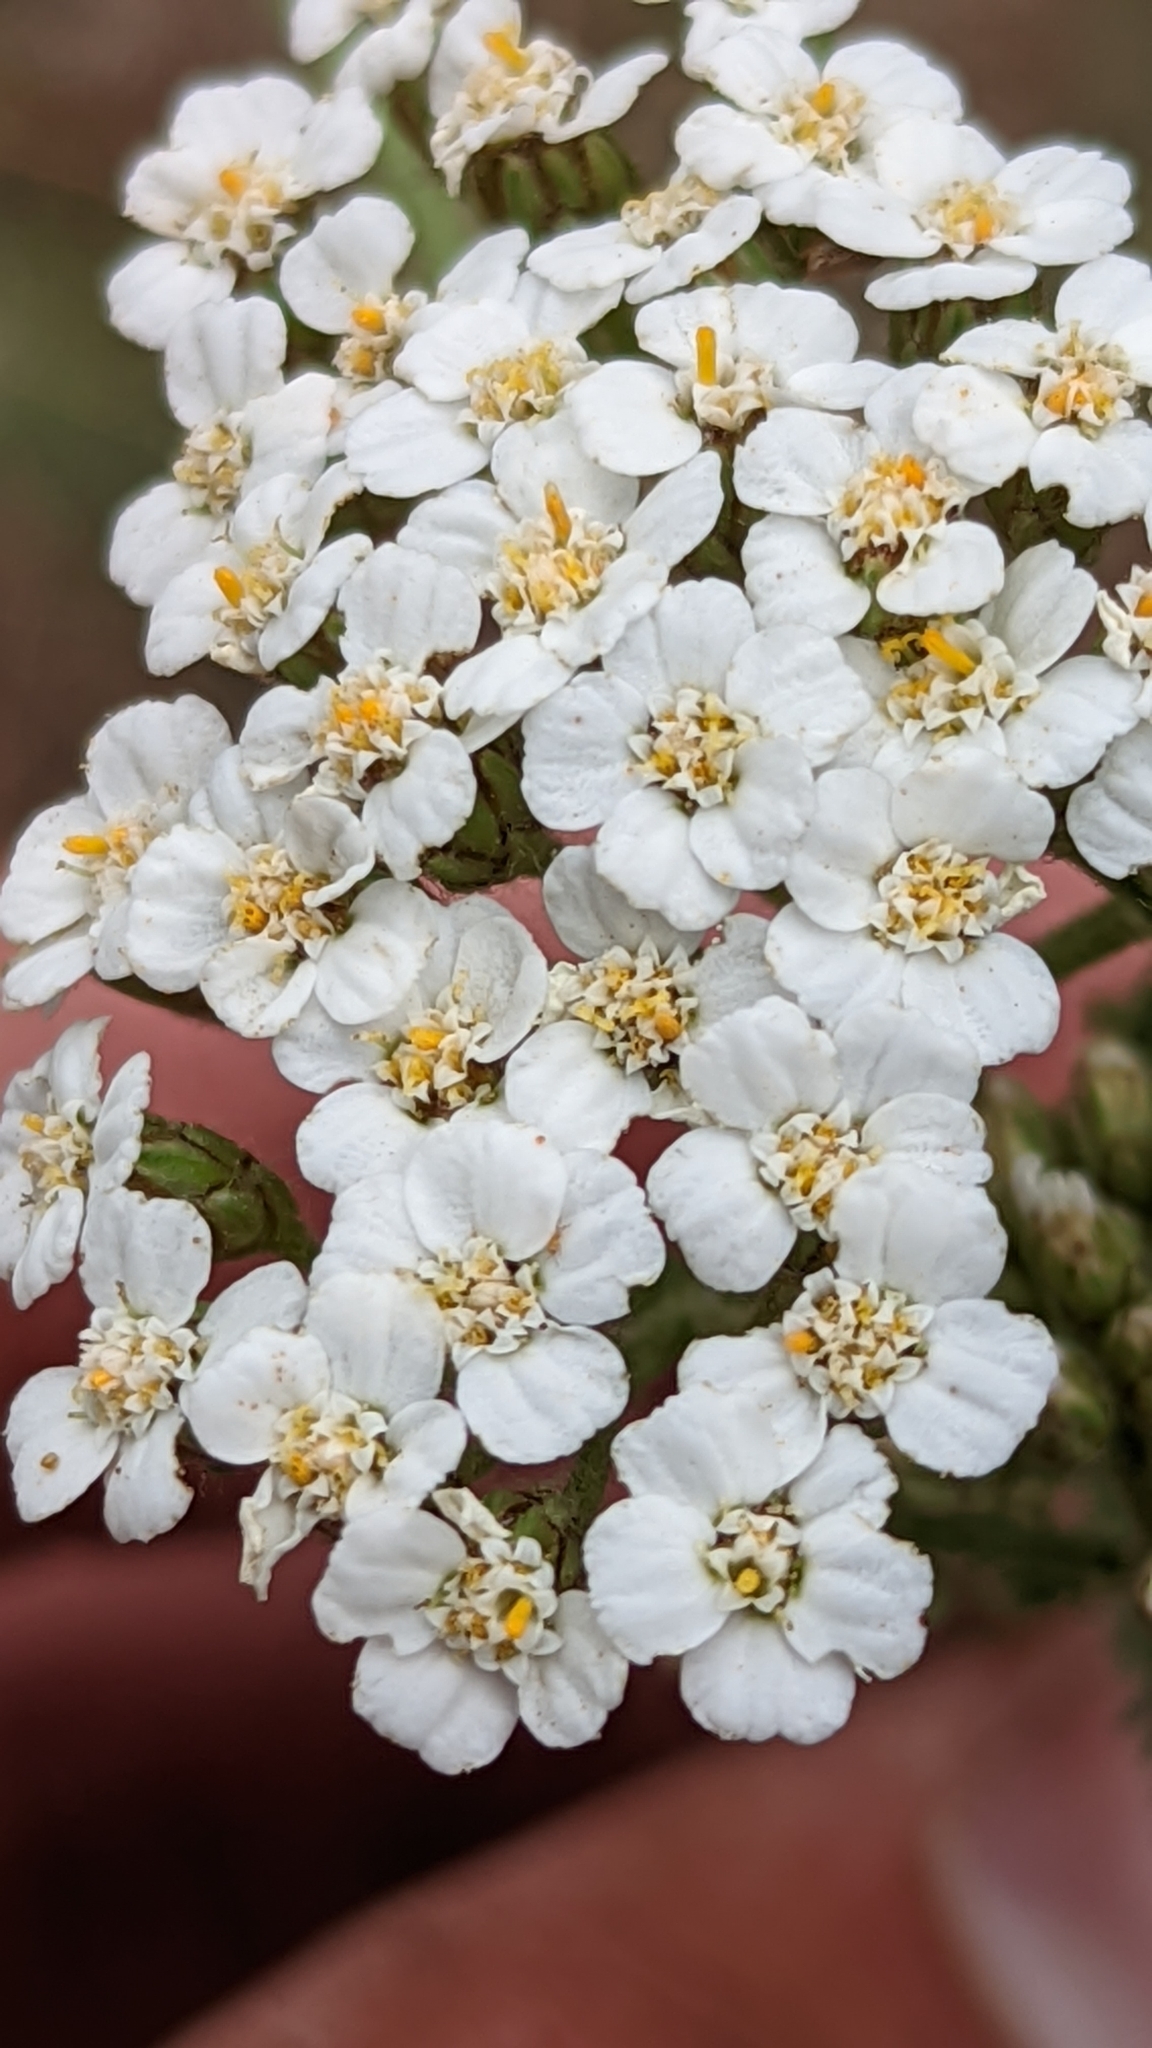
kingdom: Plantae
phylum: Tracheophyta
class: Magnoliopsida
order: Asterales
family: Asteraceae
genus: Achillea
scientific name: Achillea millefolium
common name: Yarrow
